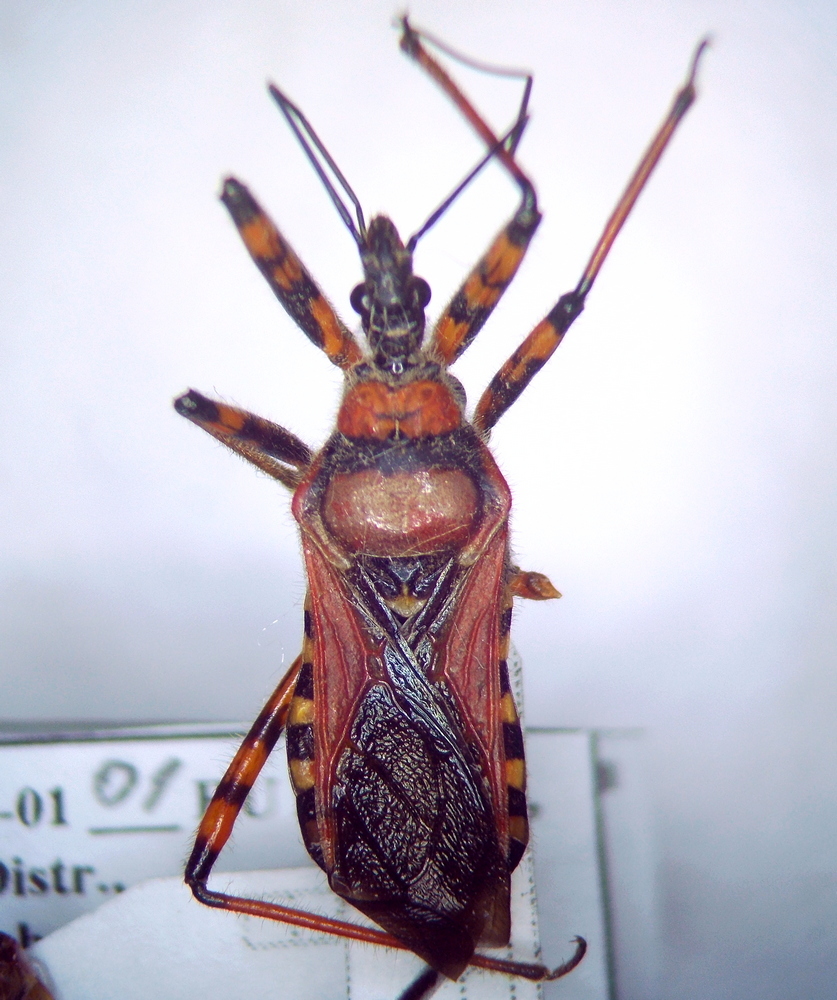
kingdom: Animalia
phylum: Arthropoda
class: Insecta
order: Hemiptera
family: Reduviidae
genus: Rhynocoris
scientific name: Rhynocoris iracundus
